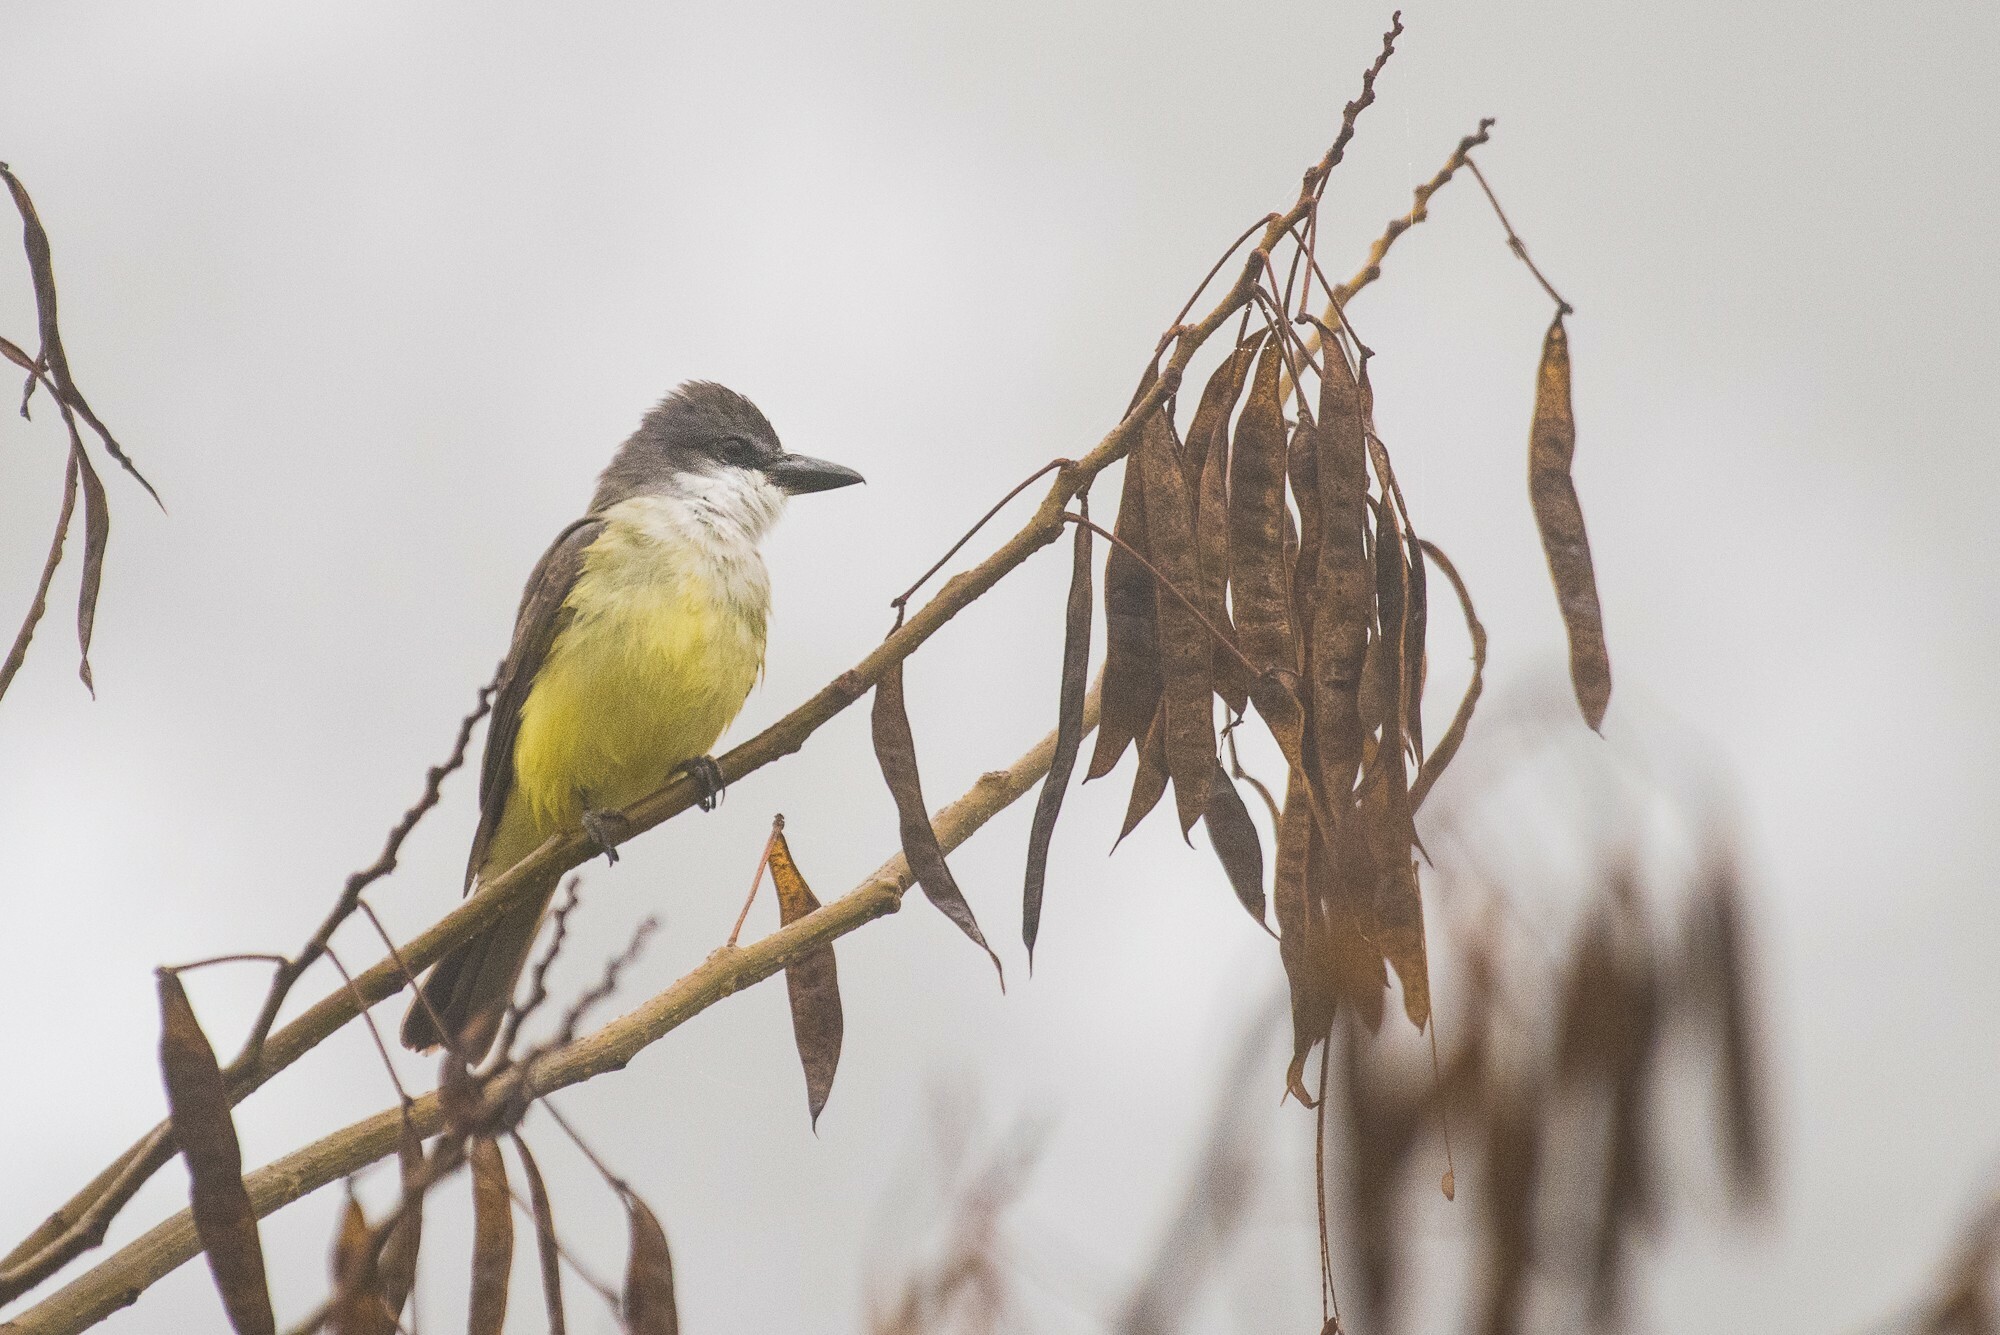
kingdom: Animalia
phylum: Chordata
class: Aves
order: Passeriformes
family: Tyrannidae
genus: Tyrannus
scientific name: Tyrannus crassirostris
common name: Thick-billed kingbird
